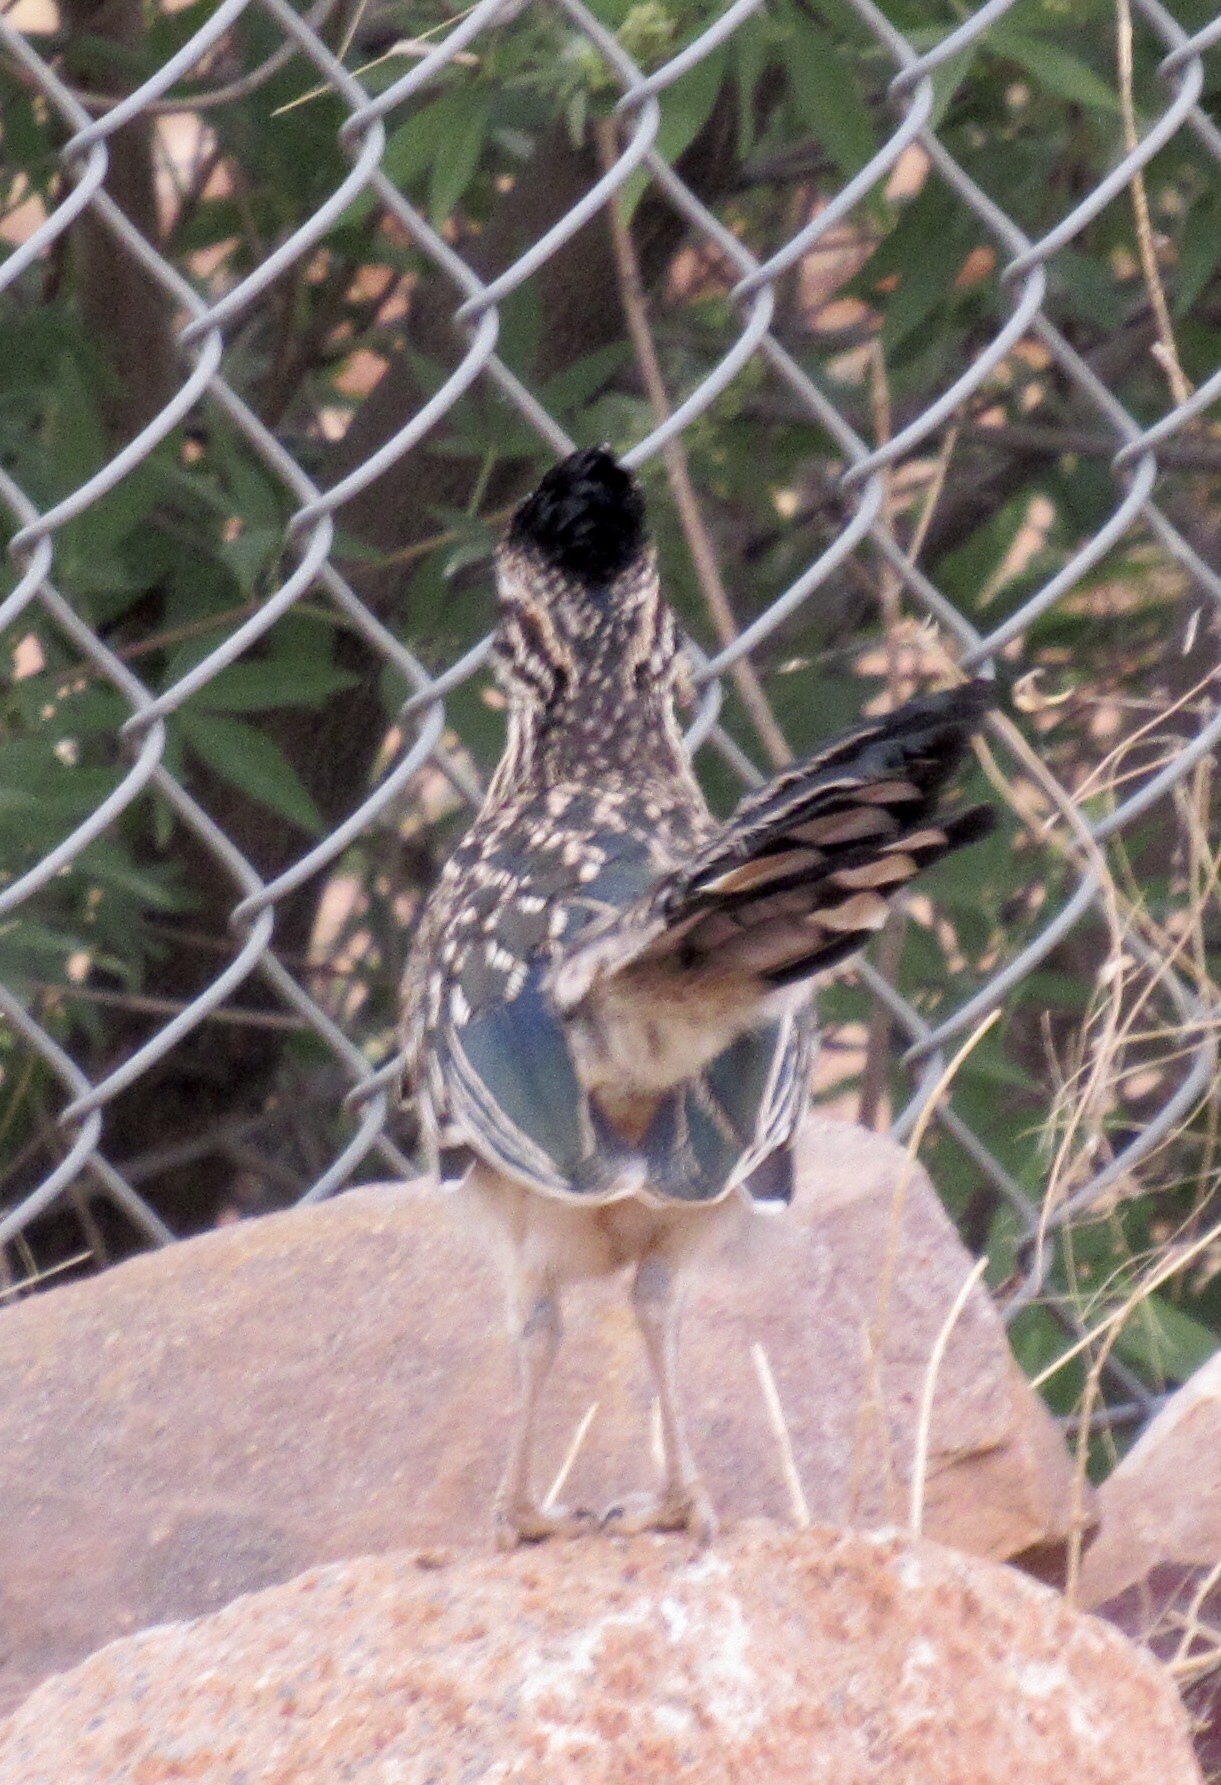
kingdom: Animalia
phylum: Chordata
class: Aves
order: Cuculiformes
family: Cuculidae
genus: Geococcyx
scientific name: Geococcyx californianus
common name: Greater roadrunner
